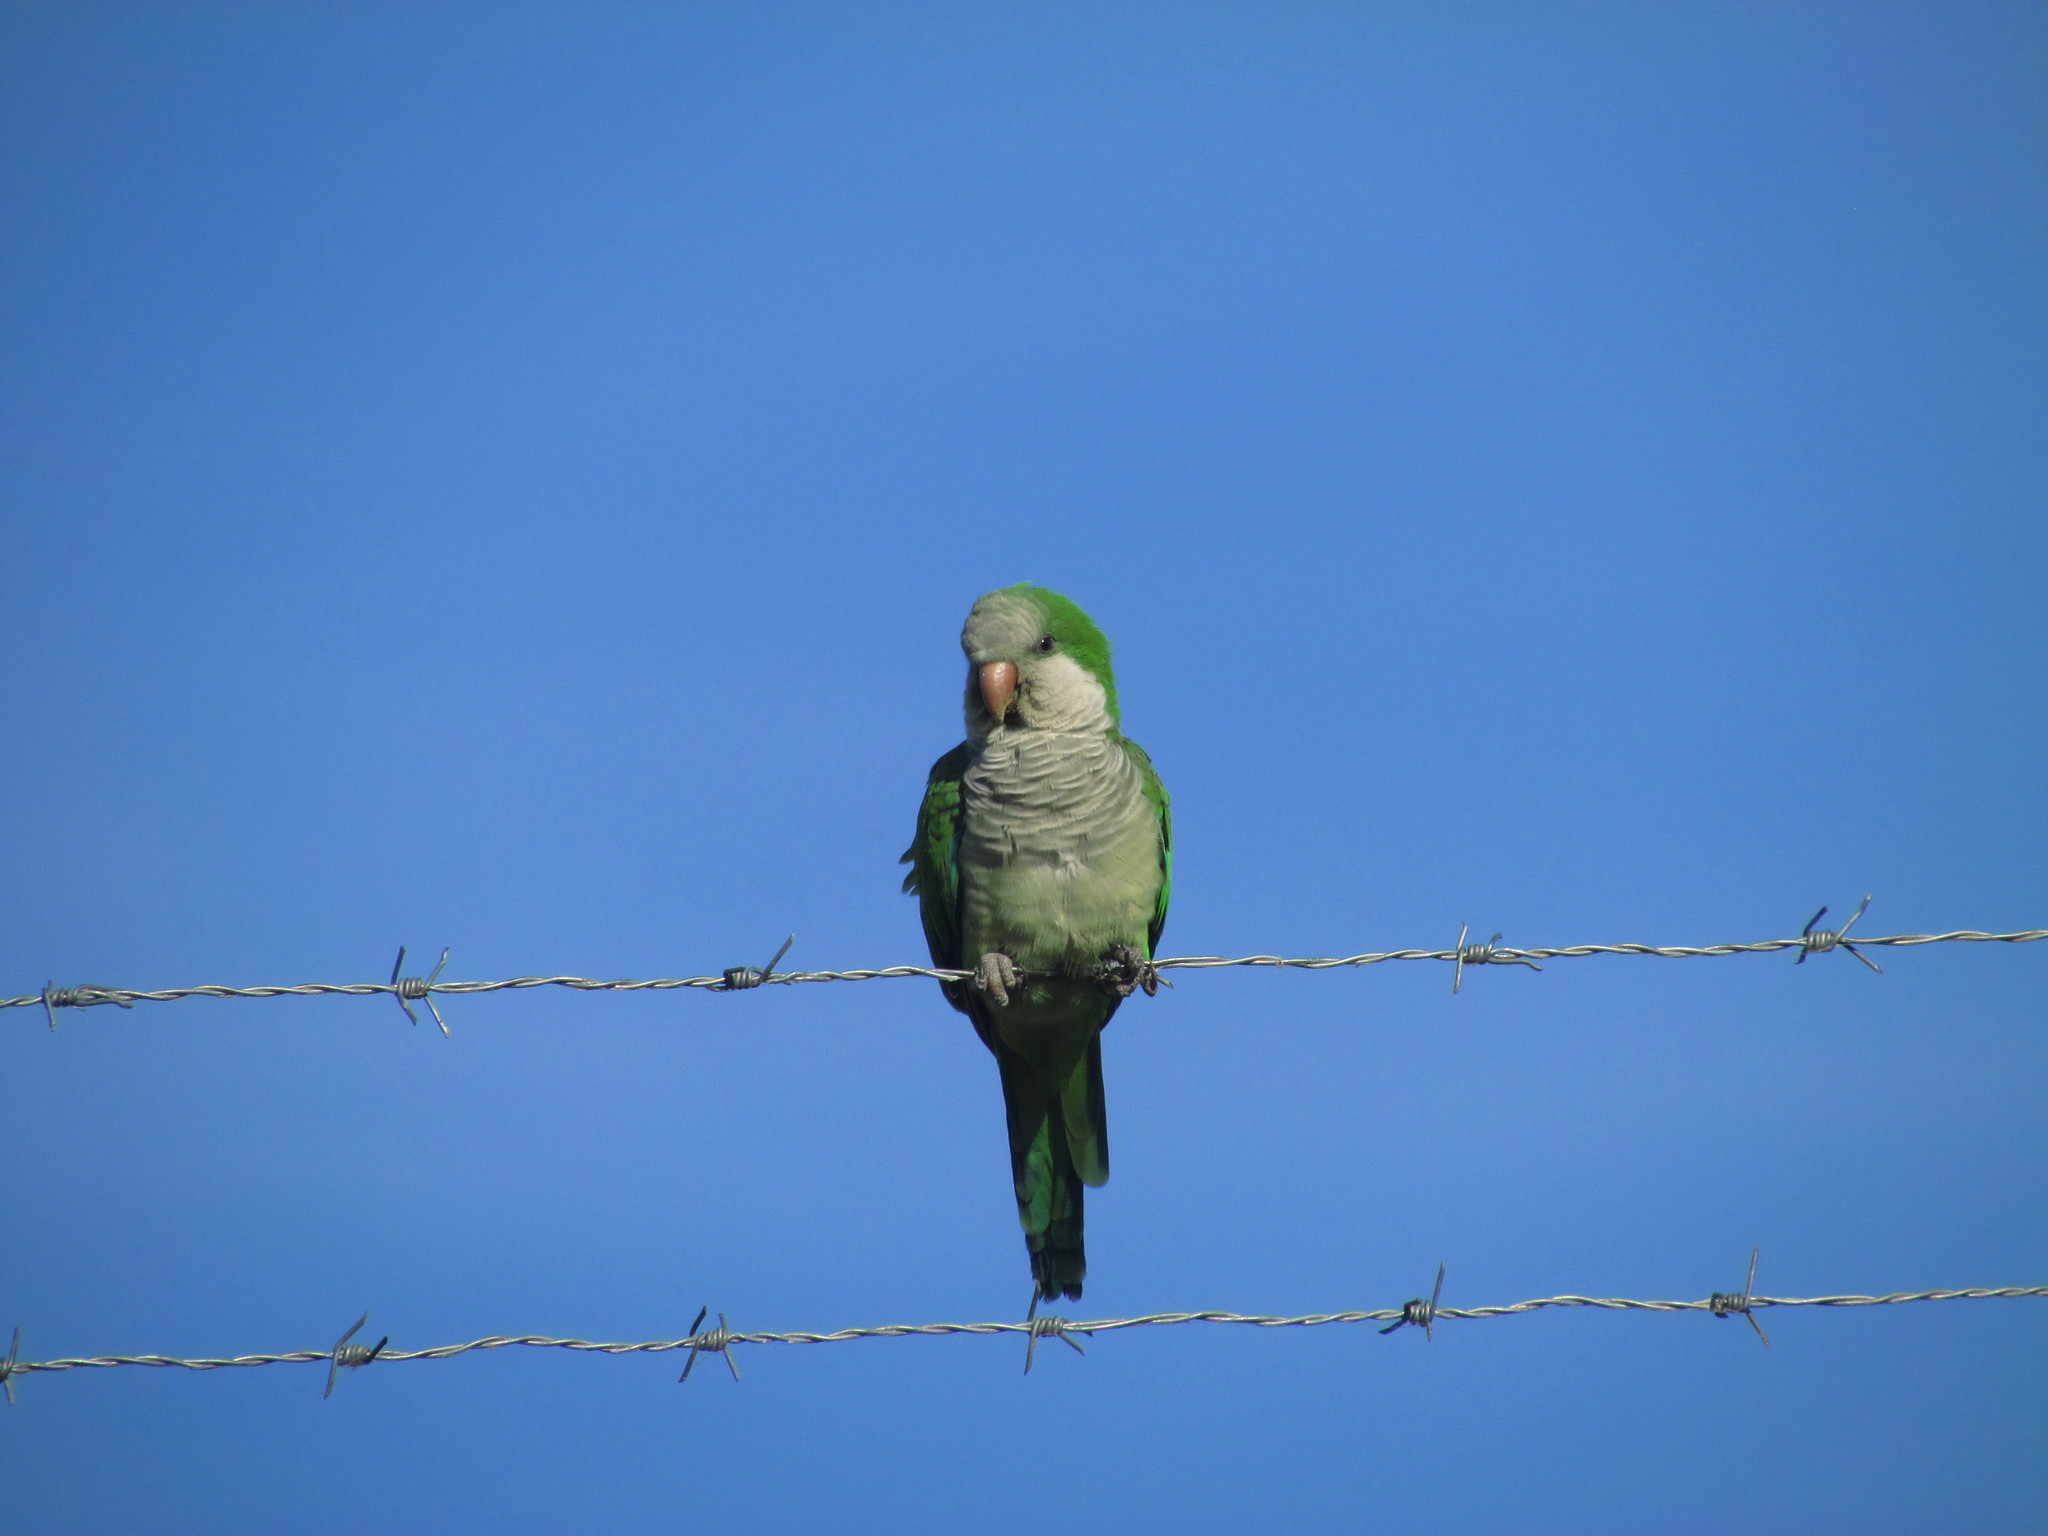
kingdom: Animalia
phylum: Chordata
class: Aves
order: Psittaciformes
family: Psittacidae
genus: Myiopsitta
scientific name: Myiopsitta monachus
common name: Monk parakeet
